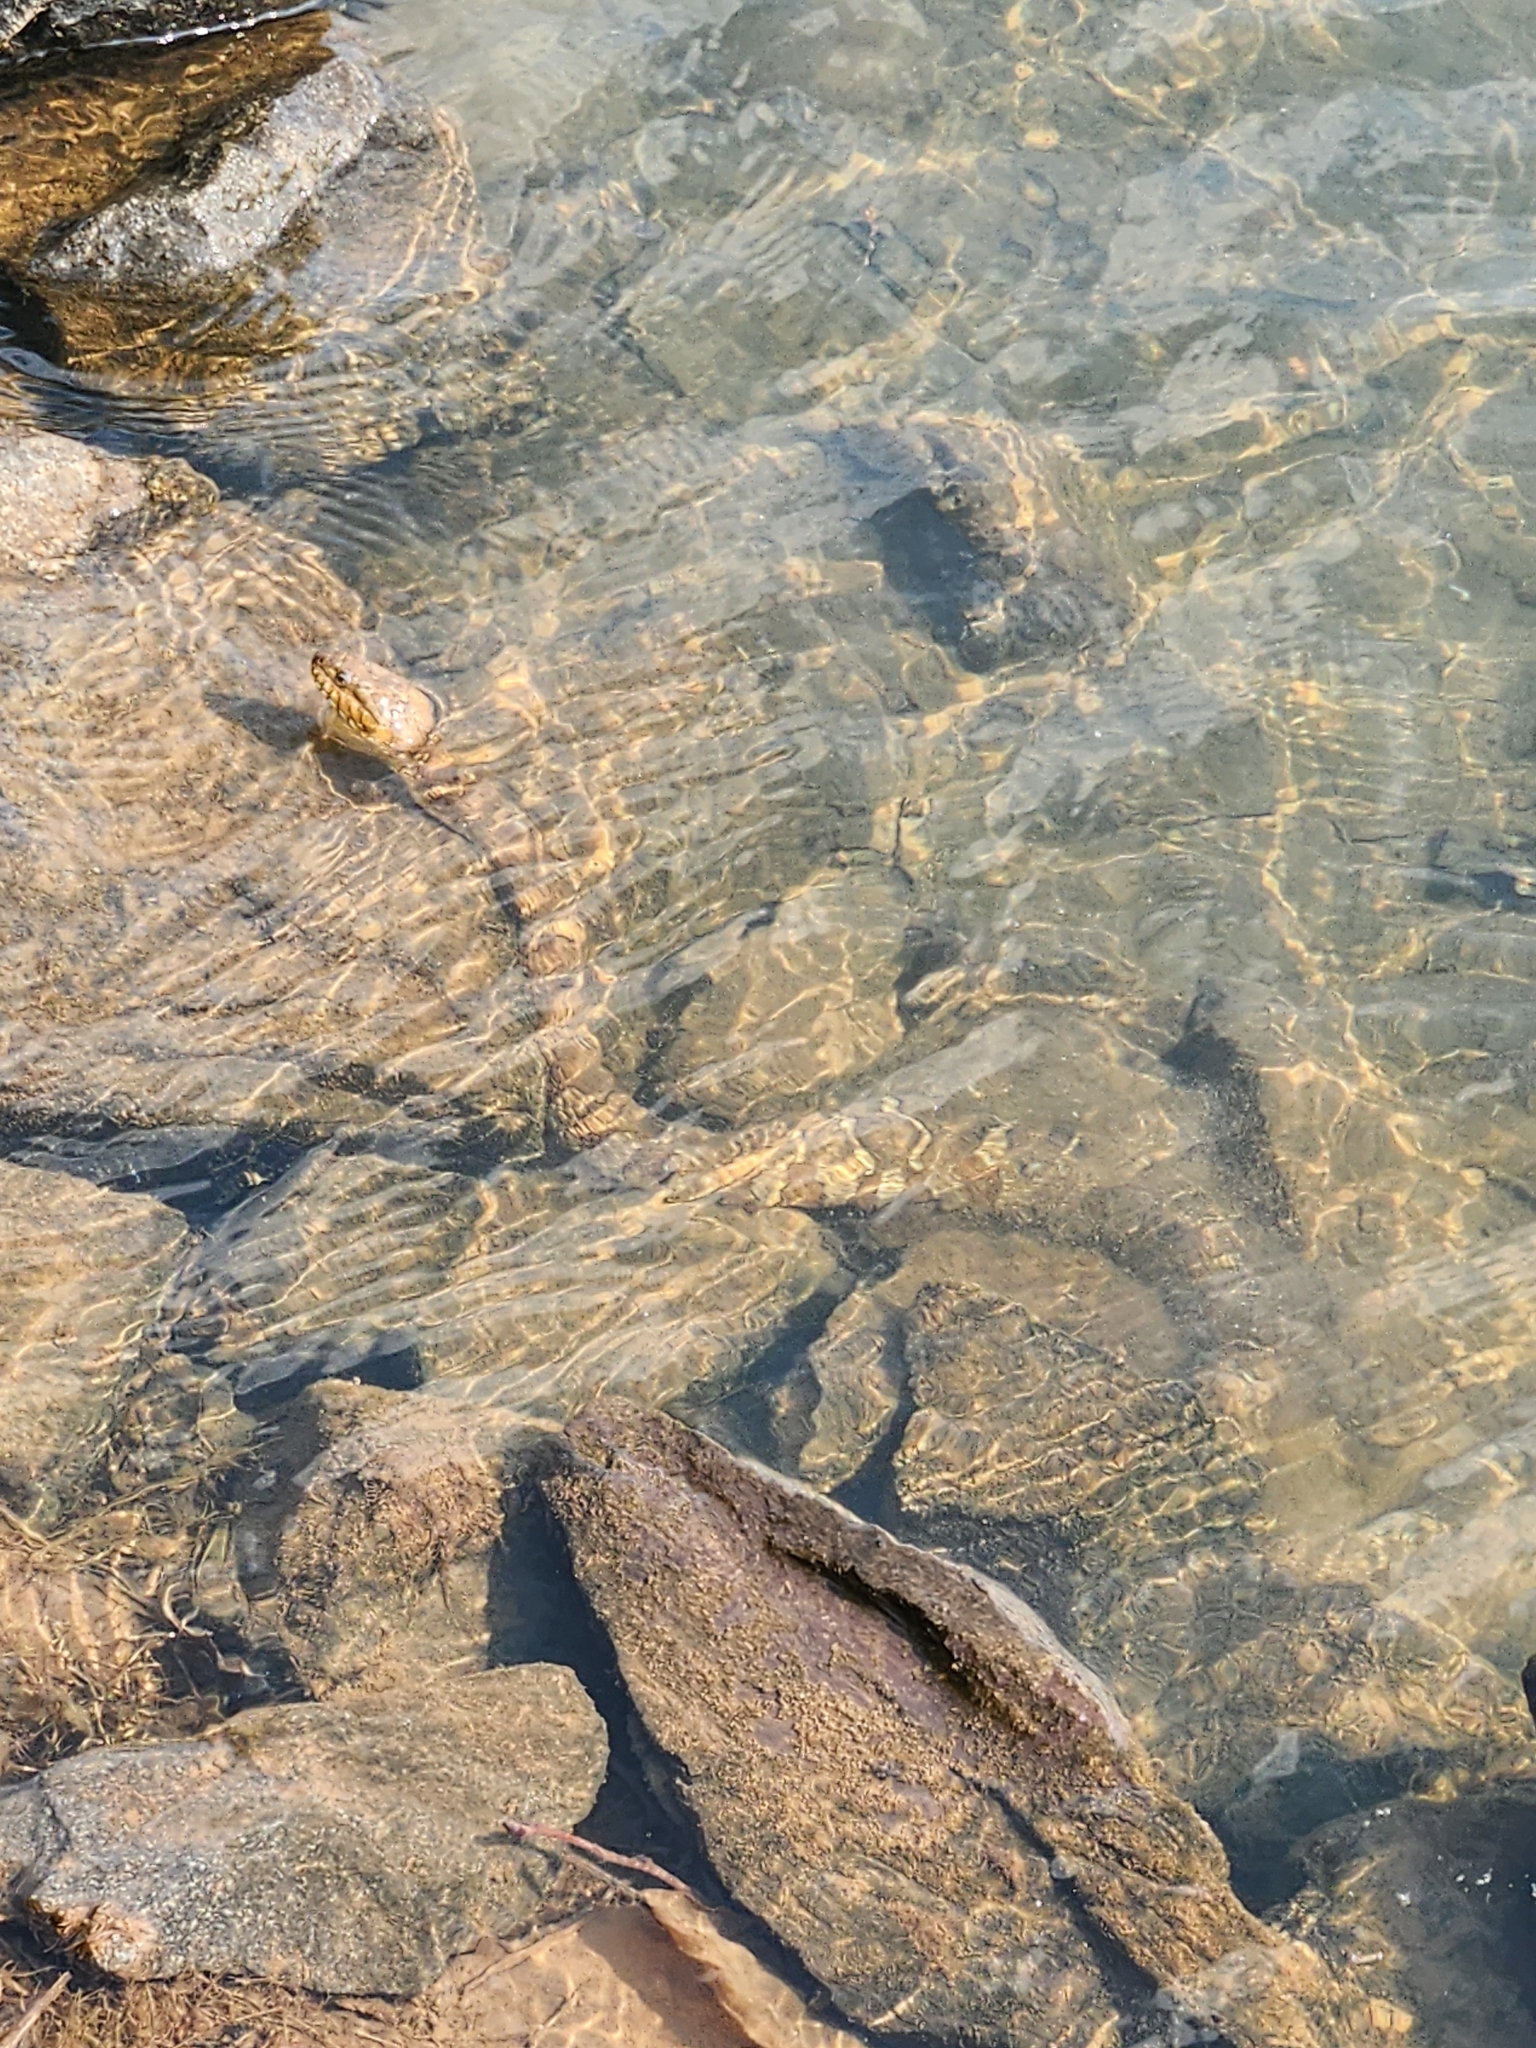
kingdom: Animalia
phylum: Chordata
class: Squamata
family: Colubridae
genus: Nerodia
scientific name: Nerodia sipedon
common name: Northern water snake
